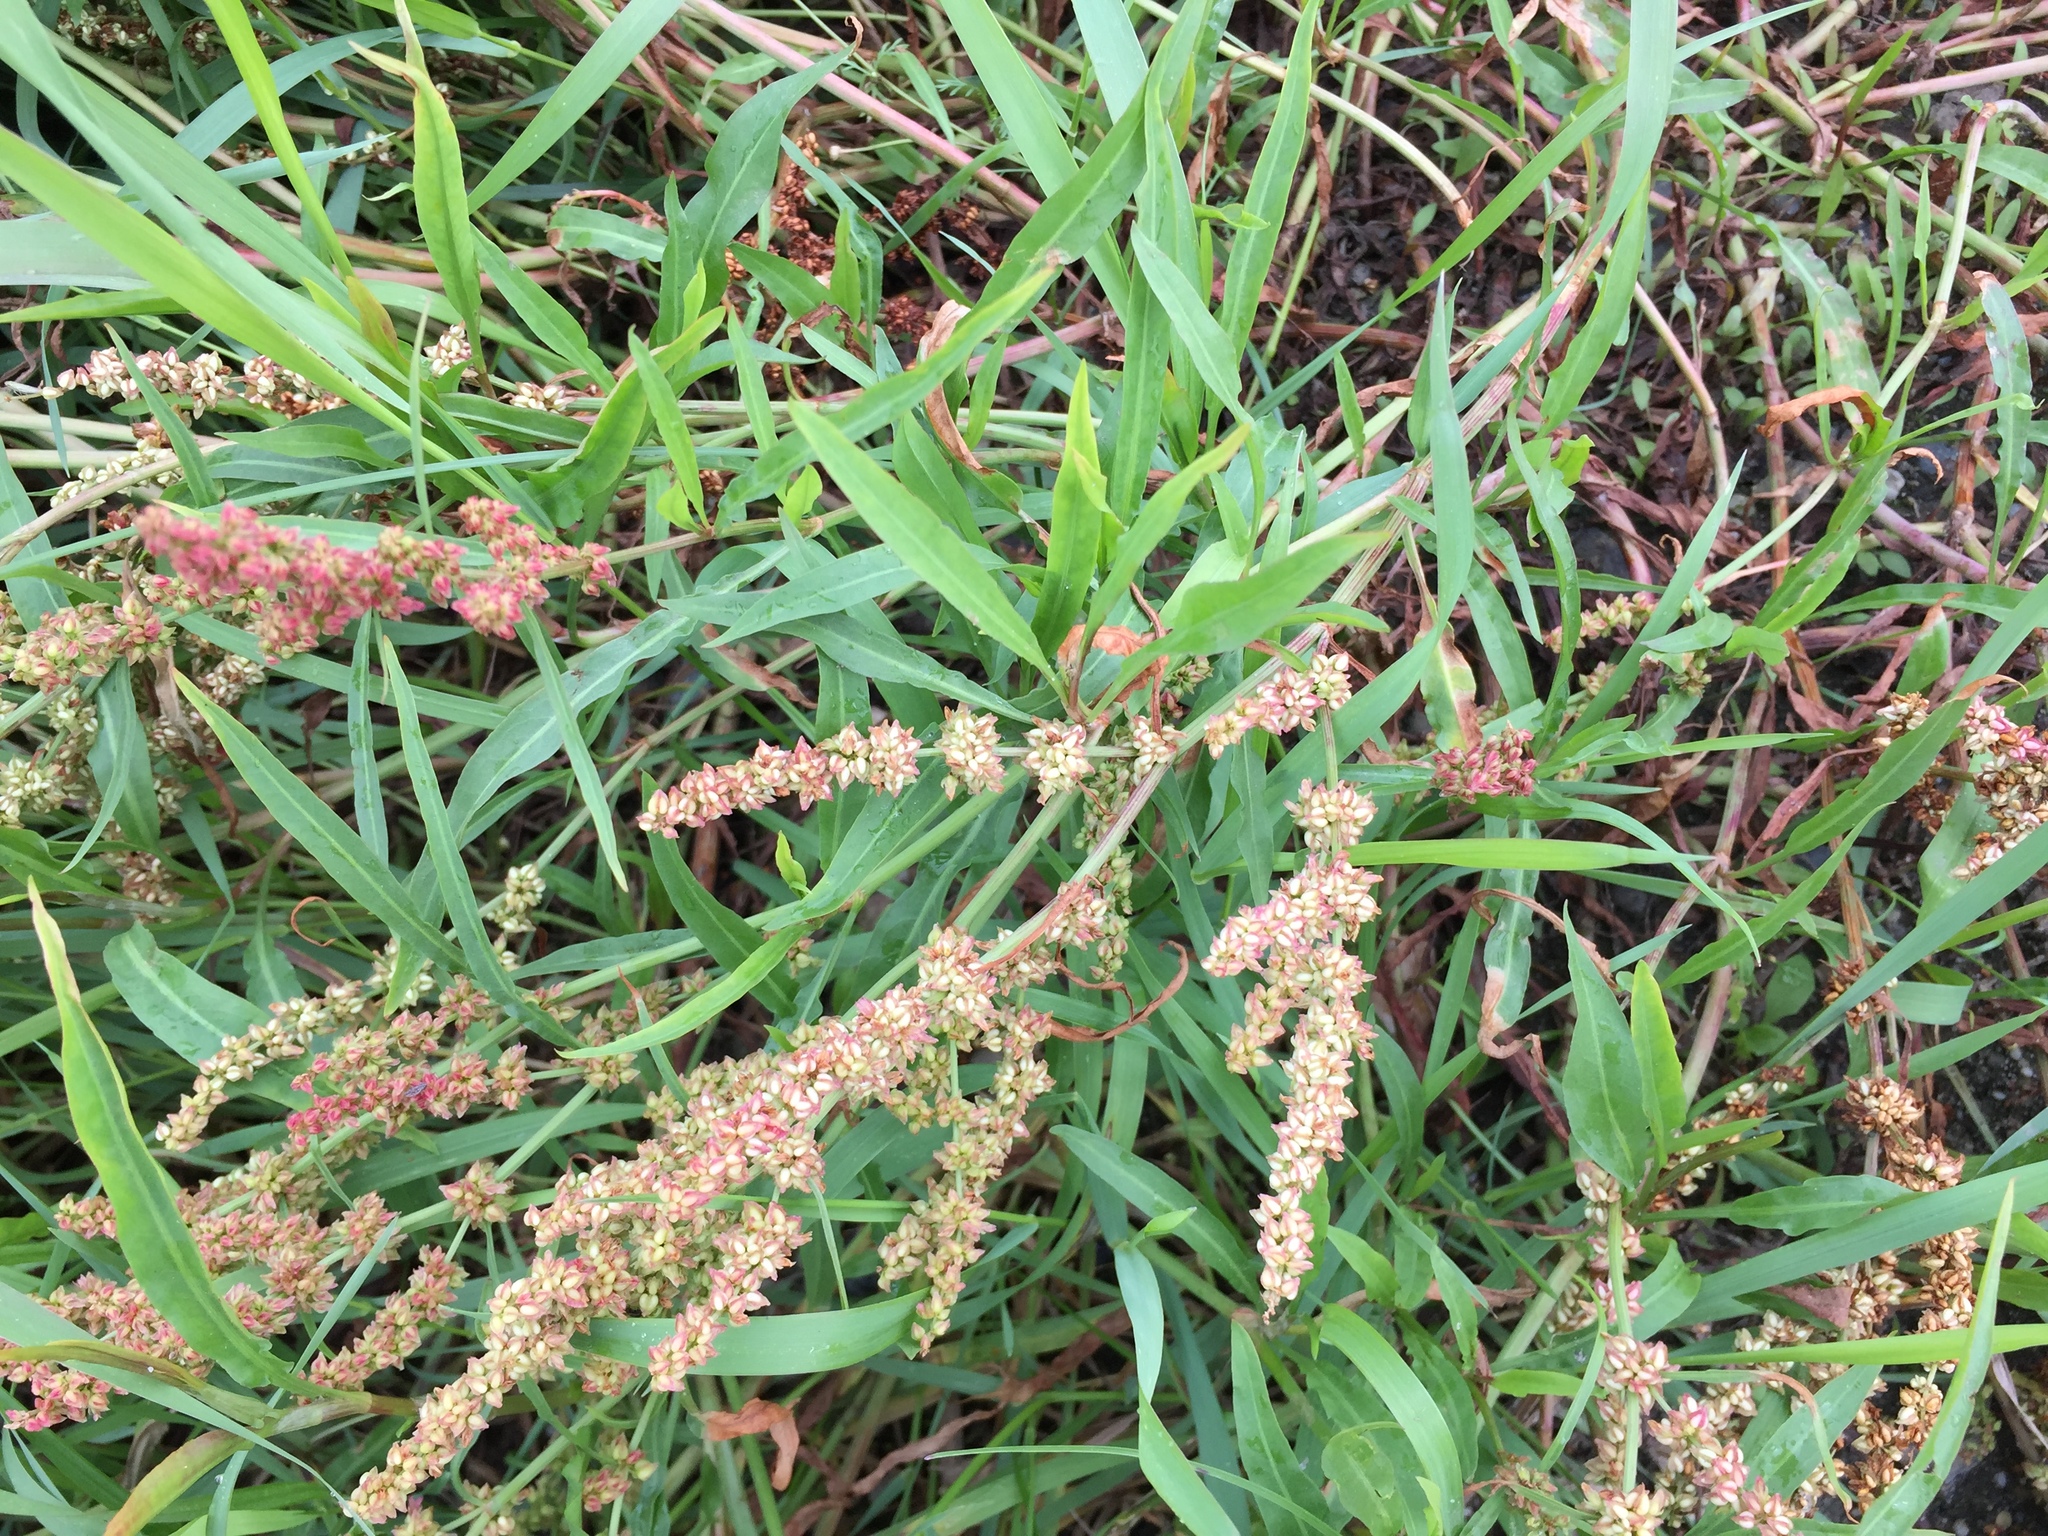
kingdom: Plantae
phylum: Tracheophyta
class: Magnoliopsida
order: Caryophyllales
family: Polygonaceae
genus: Rumex
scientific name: Rumex sibiricus
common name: Siberian dock
